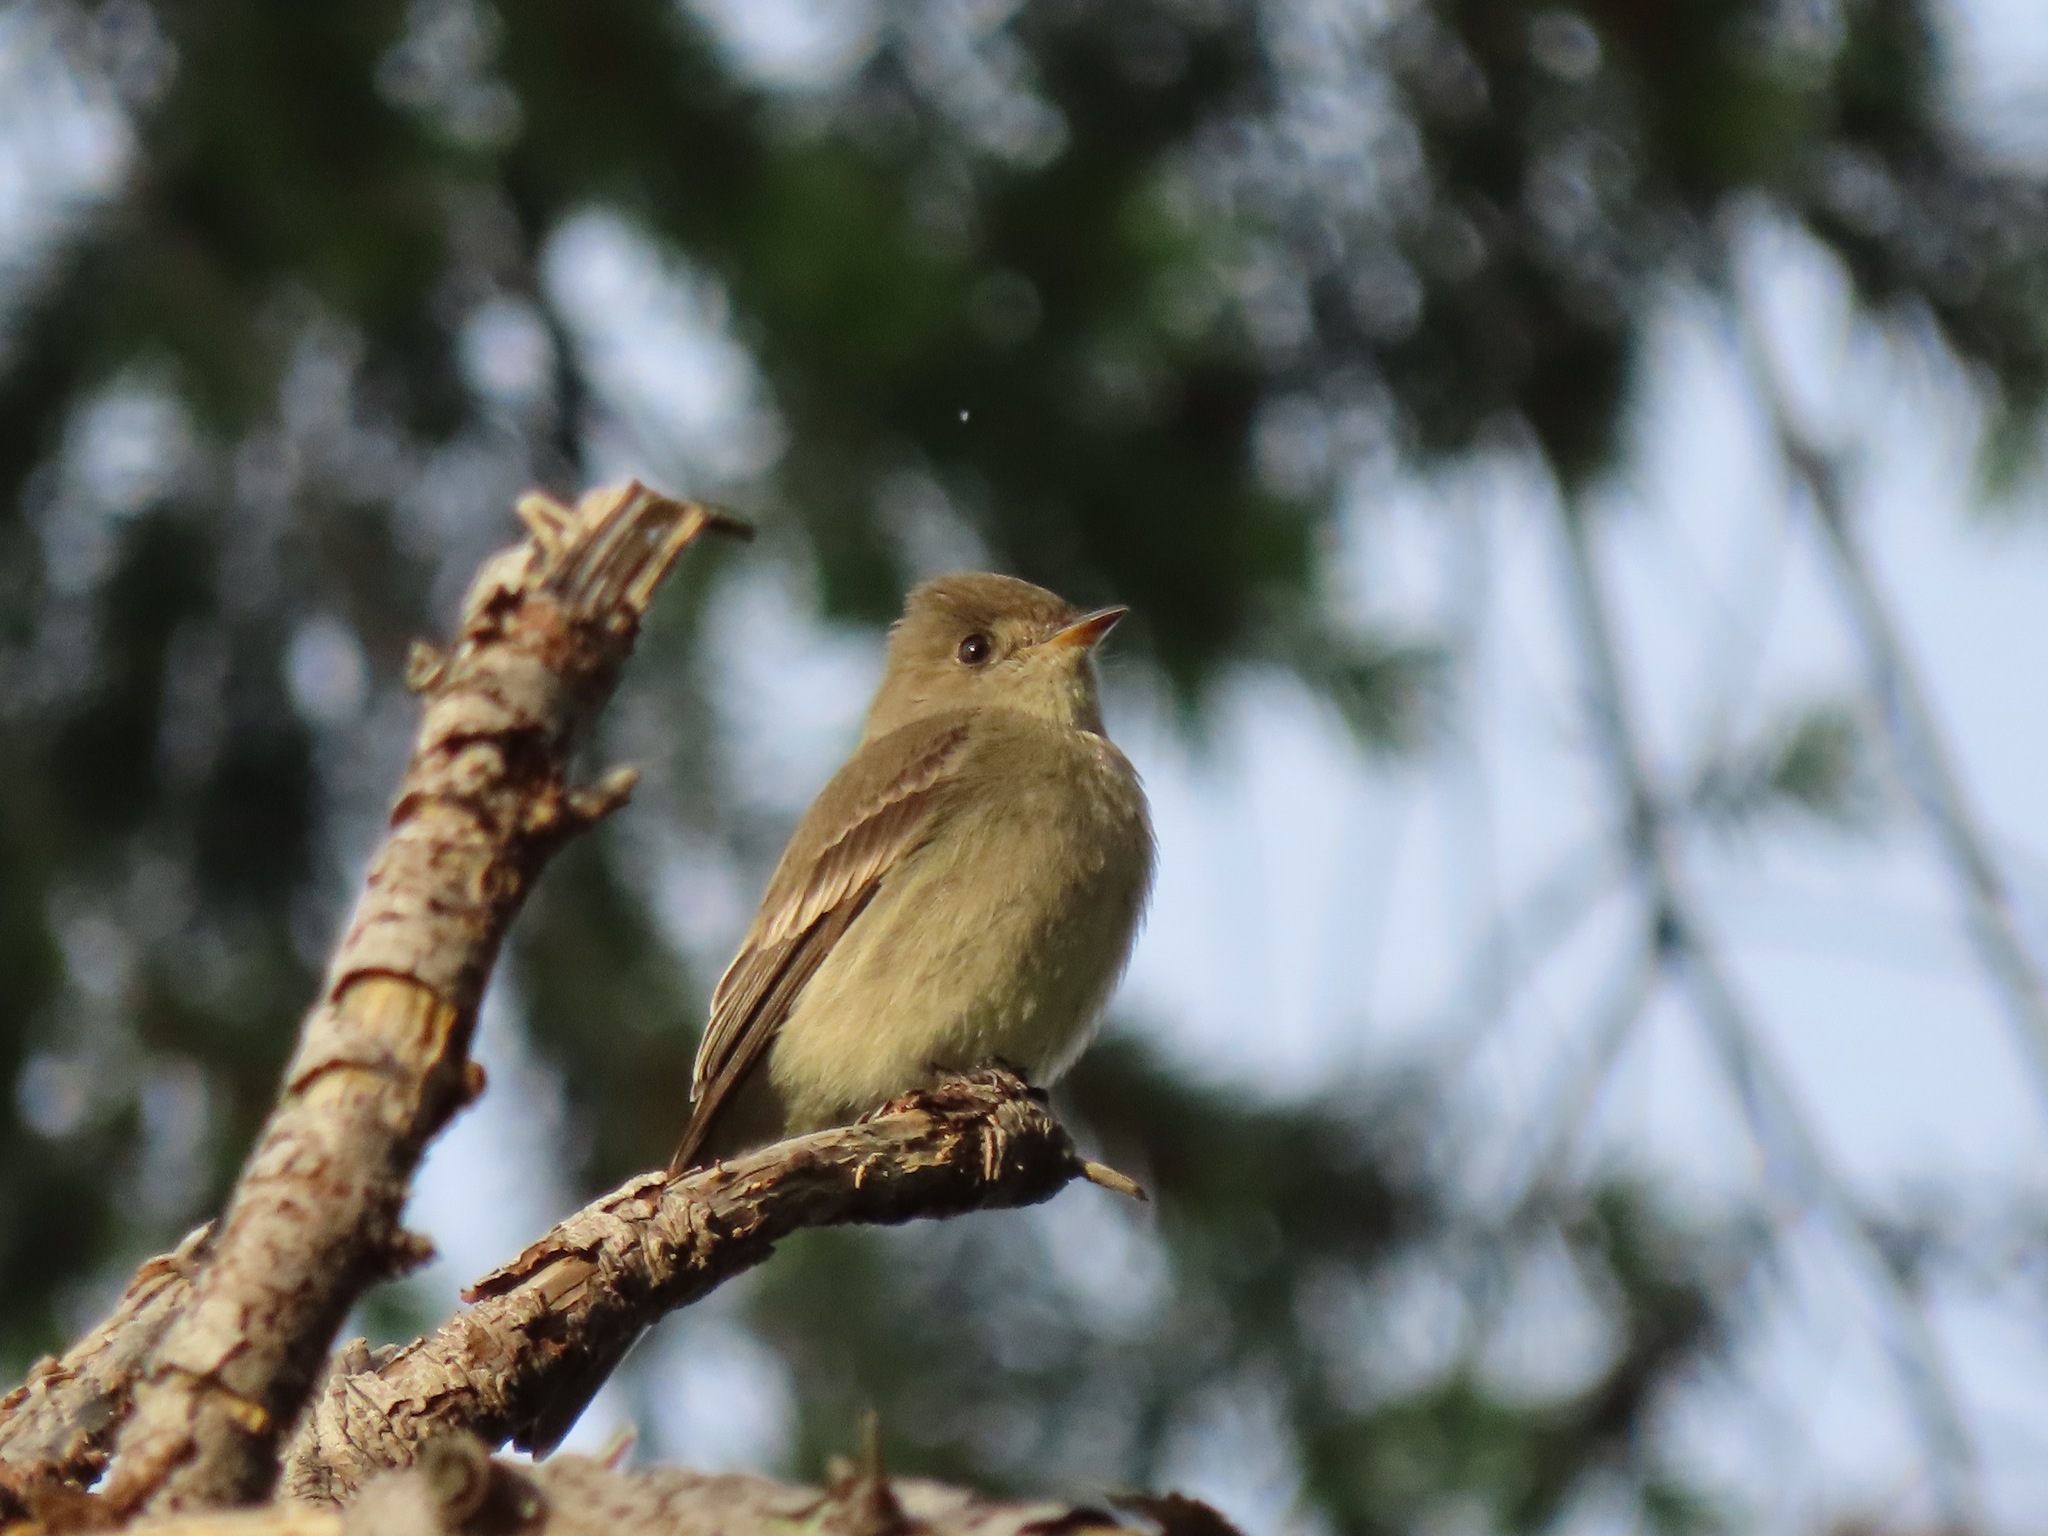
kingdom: Animalia
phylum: Chordata
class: Aves
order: Passeriformes
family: Tyrannidae
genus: Contopus
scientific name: Contopus sordidulus
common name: Western wood-pewee
